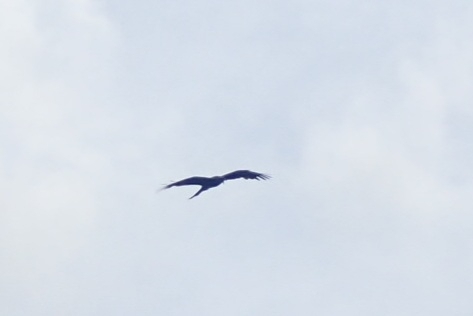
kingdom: Animalia
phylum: Chordata
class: Aves
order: Accipitriformes
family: Accipitridae
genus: Milvus
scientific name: Milvus migrans
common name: Black kite
